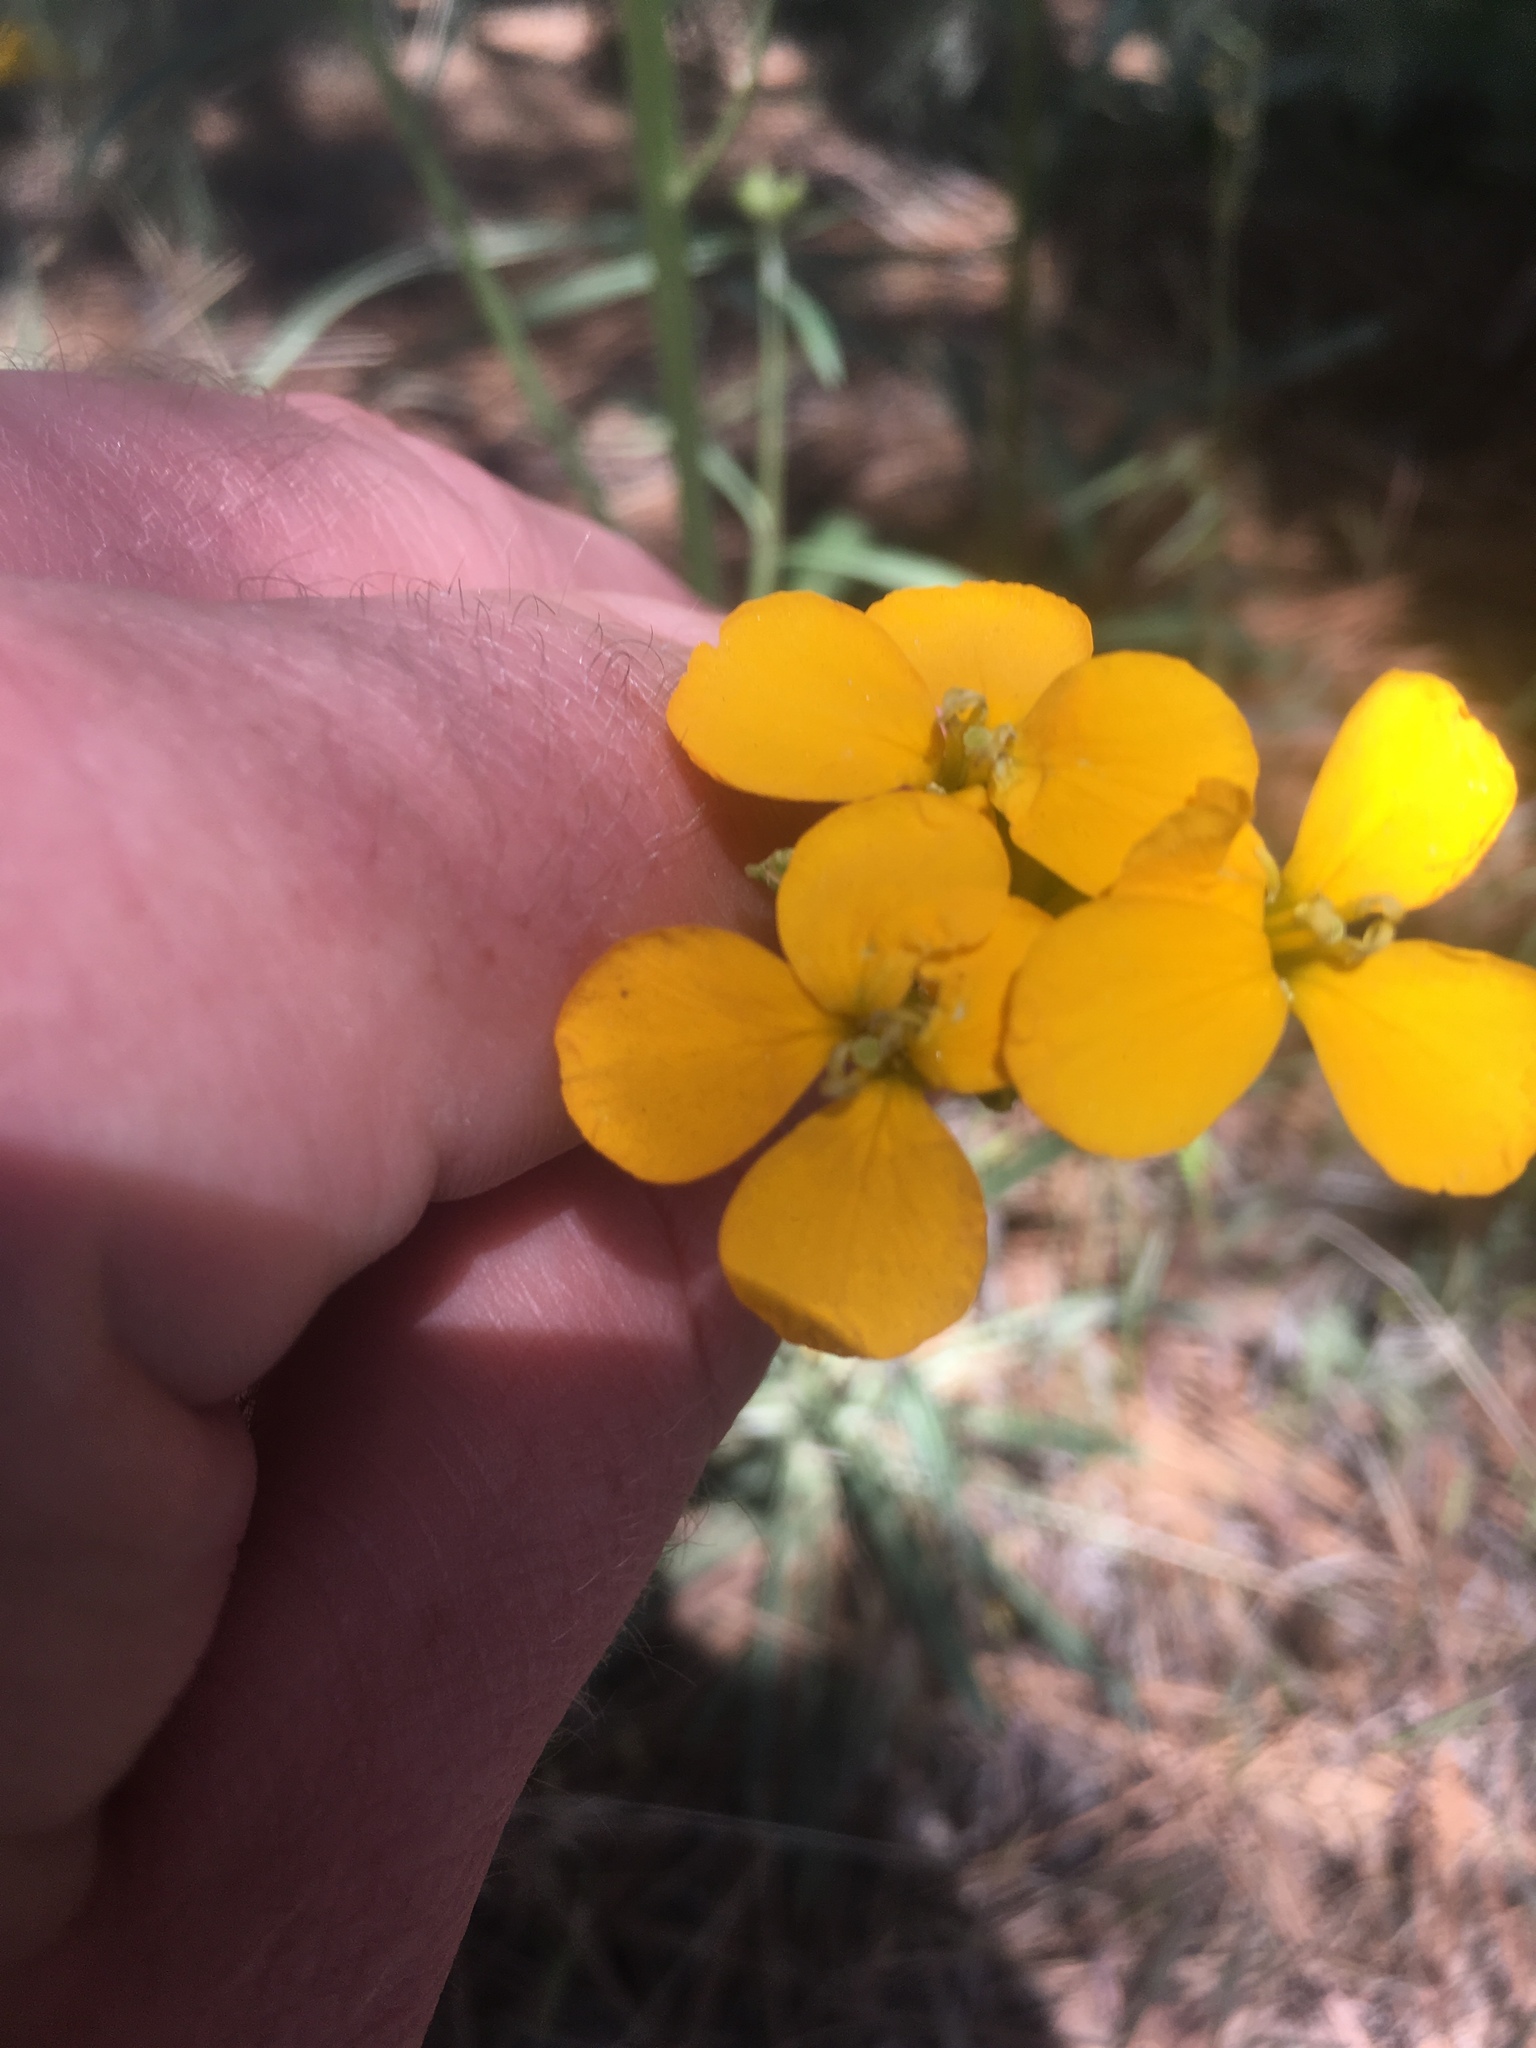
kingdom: Plantae
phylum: Tracheophyta
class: Magnoliopsida
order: Brassicales
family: Brassicaceae
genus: Erysimum
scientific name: Erysimum capitatum
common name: Western wallflower
